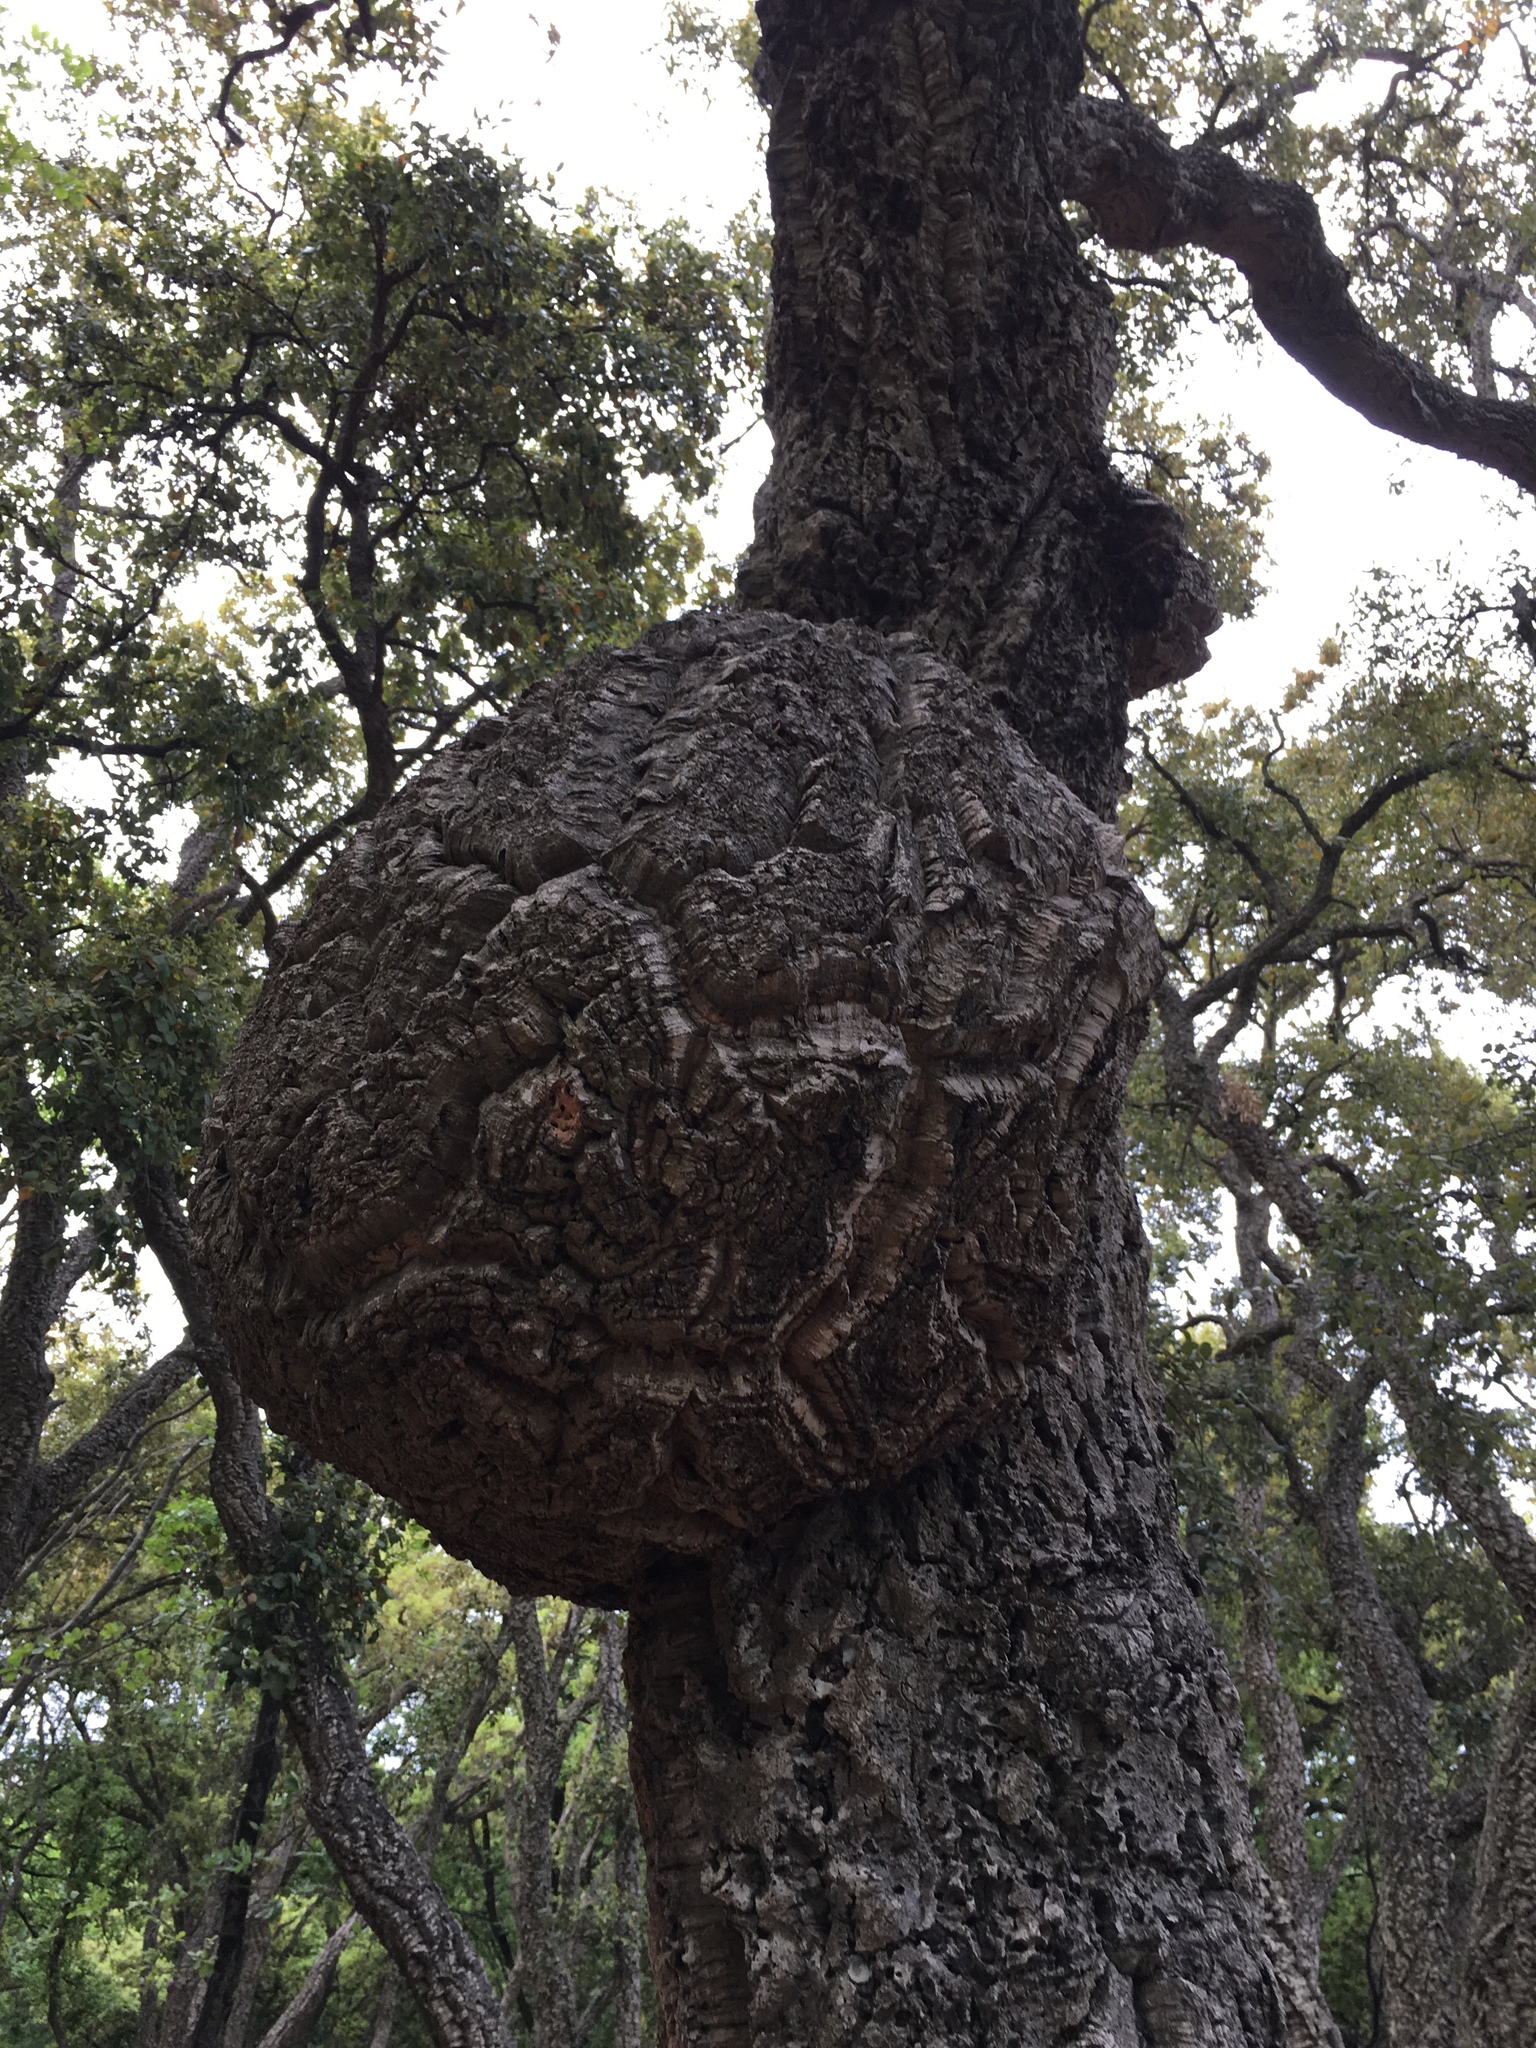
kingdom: Plantae
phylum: Tracheophyta
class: Magnoliopsida
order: Fagales
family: Fagaceae
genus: Quercus
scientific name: Quercus suber
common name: Cork oak
